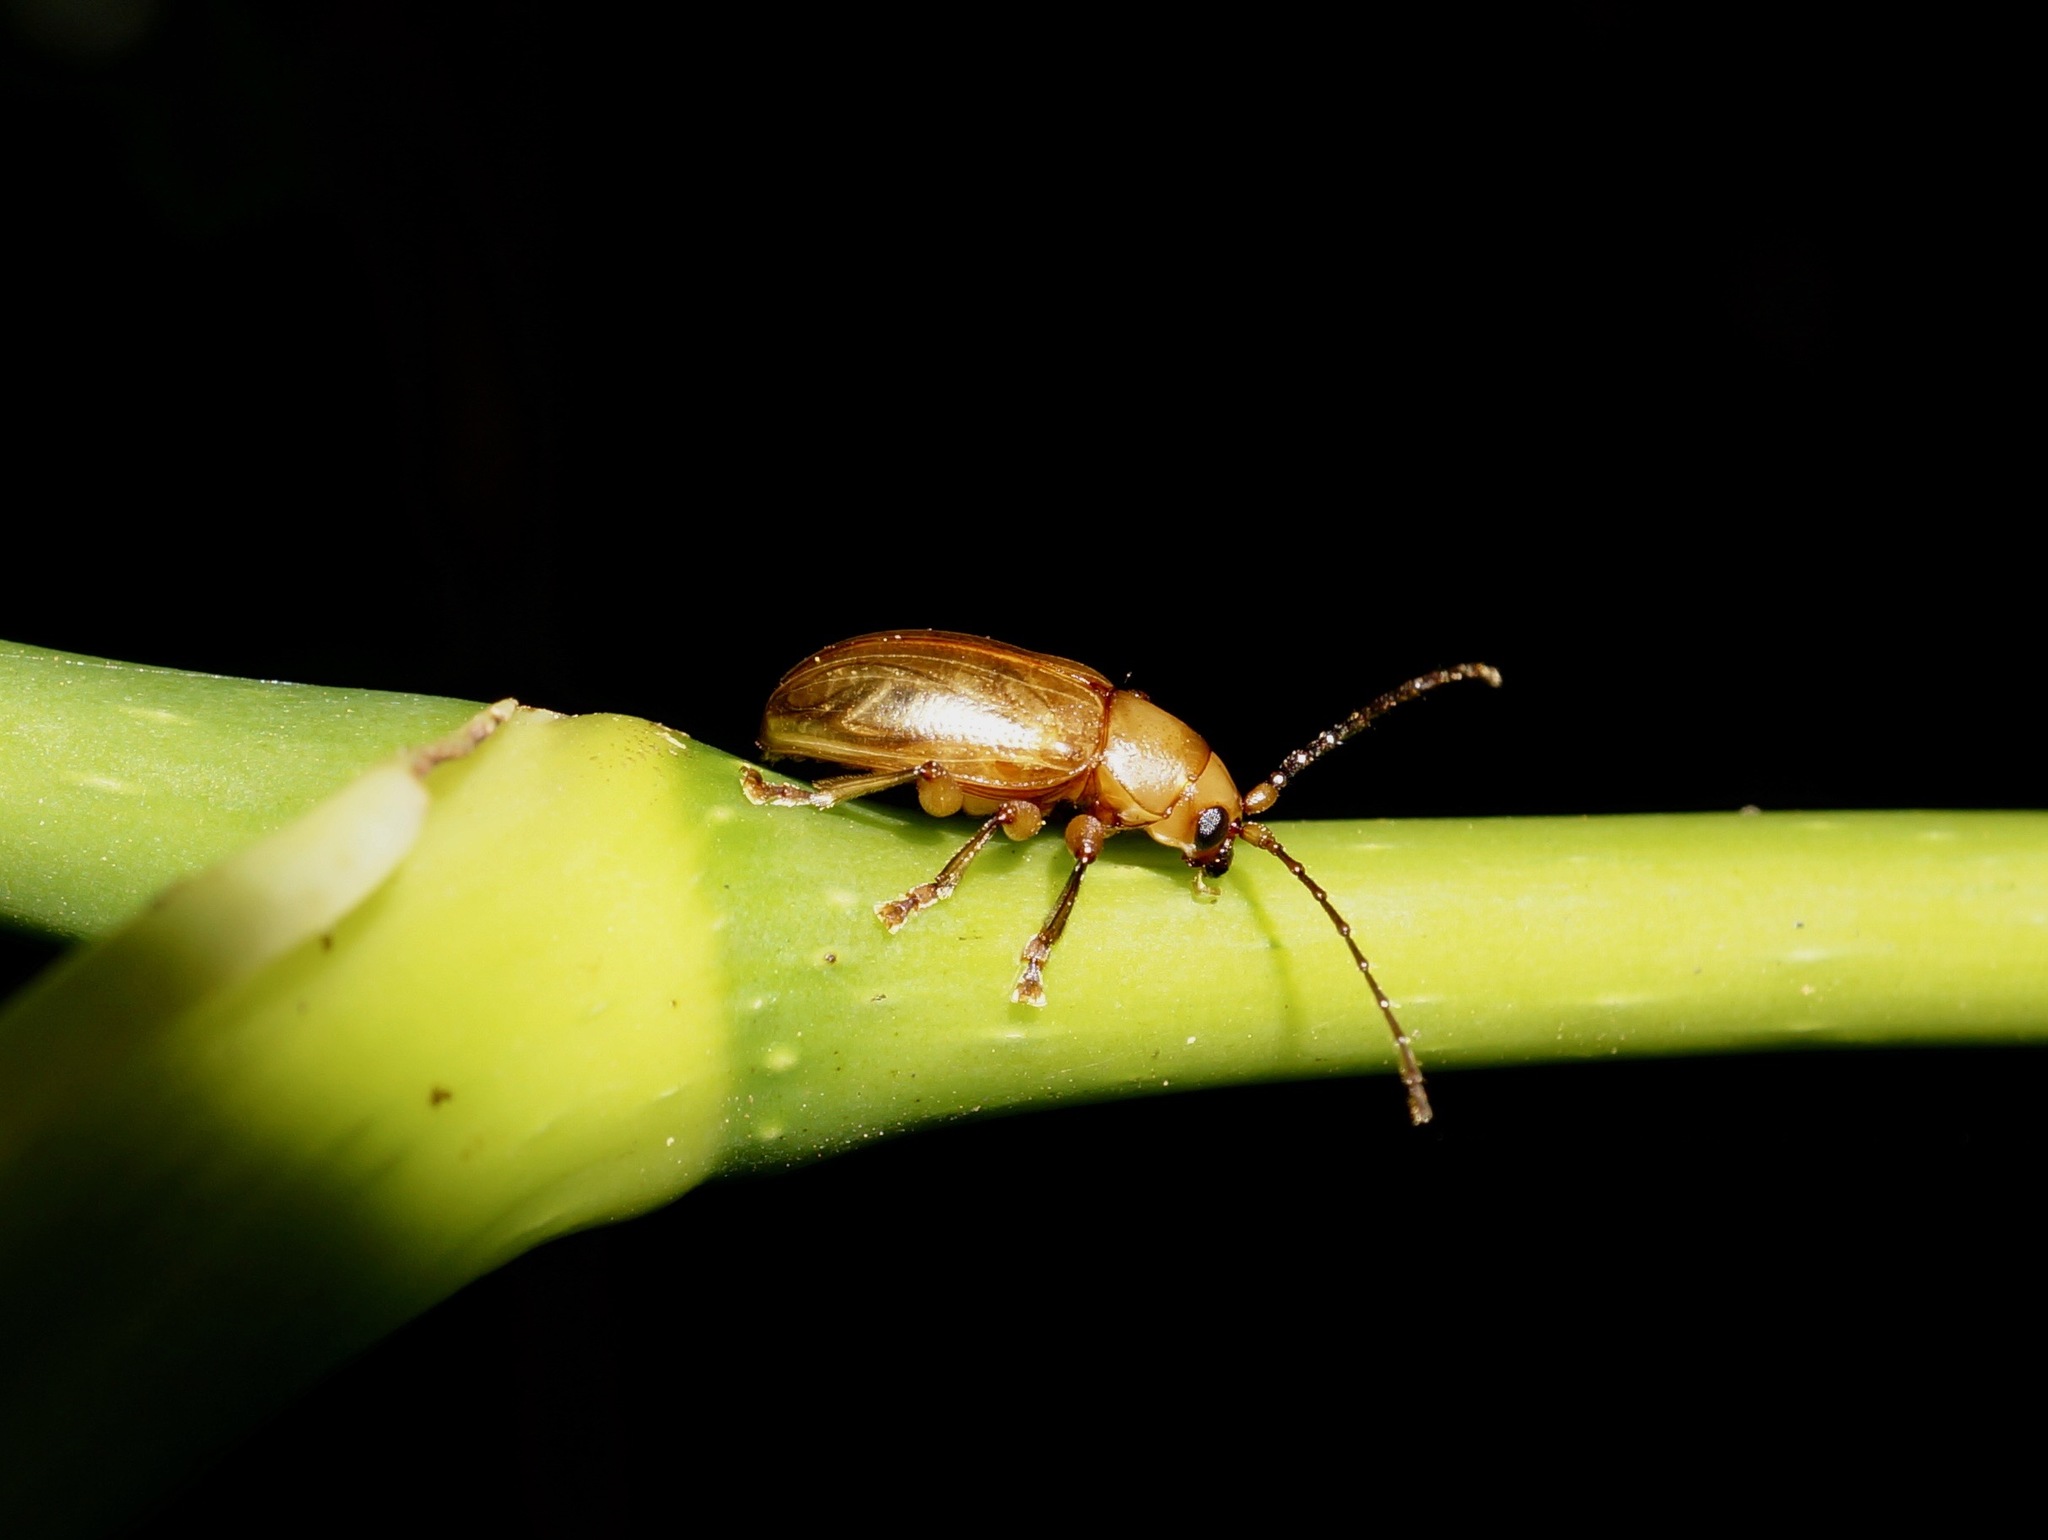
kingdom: Animalia
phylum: Arthropoda
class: Insecta
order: Coleoptera
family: Chrysomelidae
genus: Dematochroma
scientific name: Dematochroma
